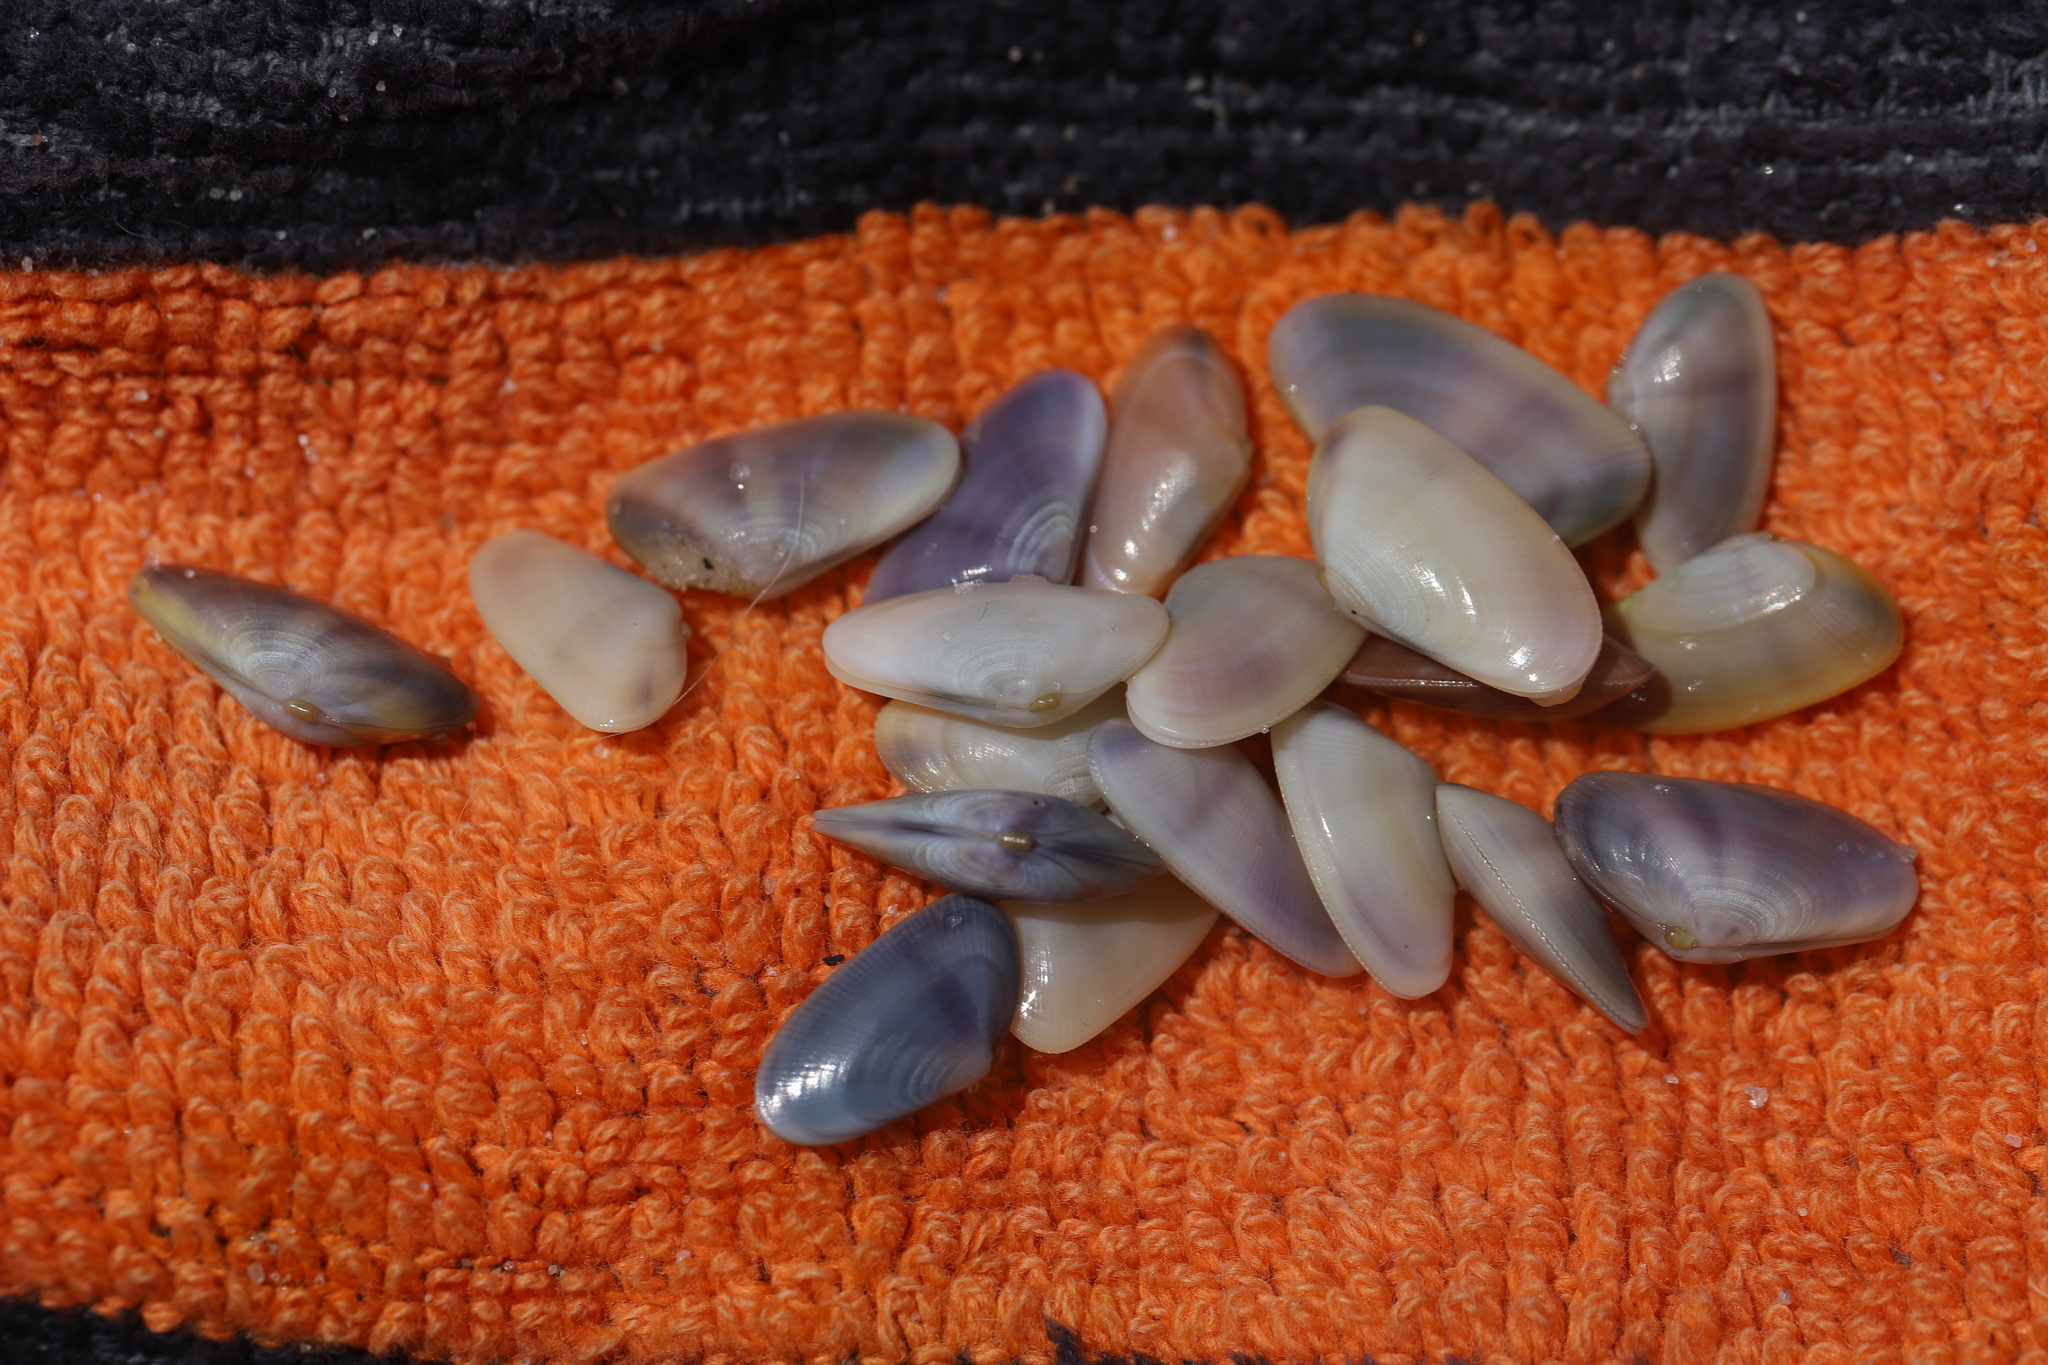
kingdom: Animalia
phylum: Mollusca
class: Bivalvia
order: Cardiida
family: Donacidae
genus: Donax
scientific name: Donax fossor
